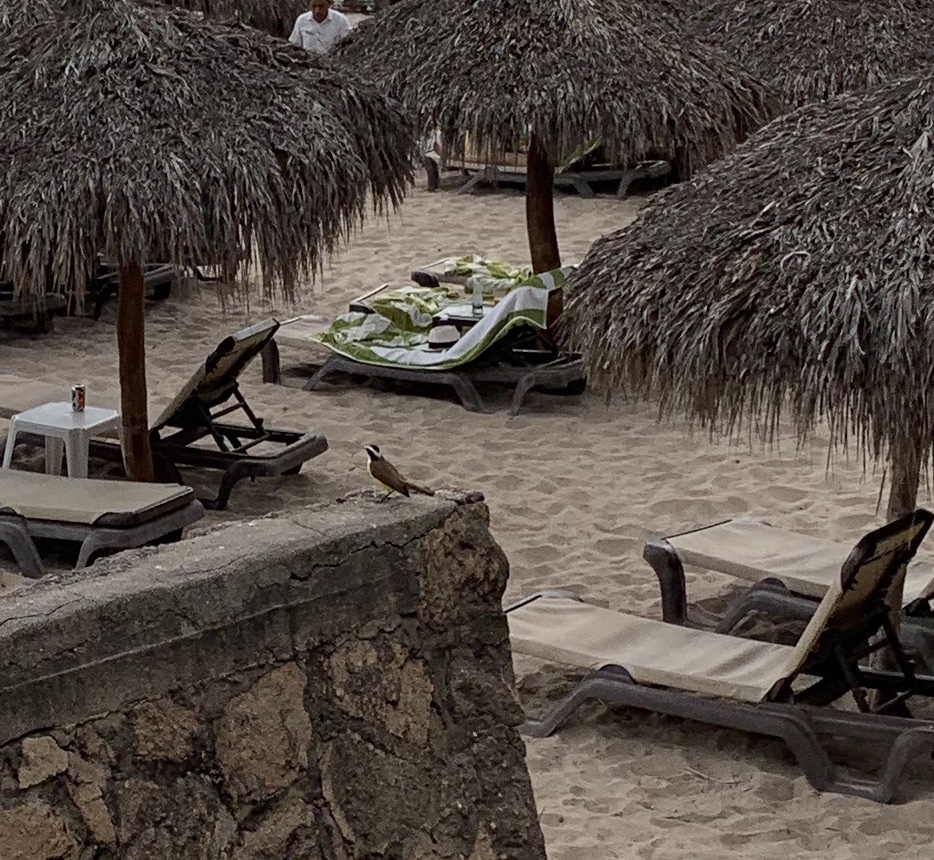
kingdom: Animalia
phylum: Chordata
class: Aves
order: Passeriformes
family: Tyrannidae
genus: Pitangus
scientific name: Pitangus sulphuratus
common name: Great kiskadee
